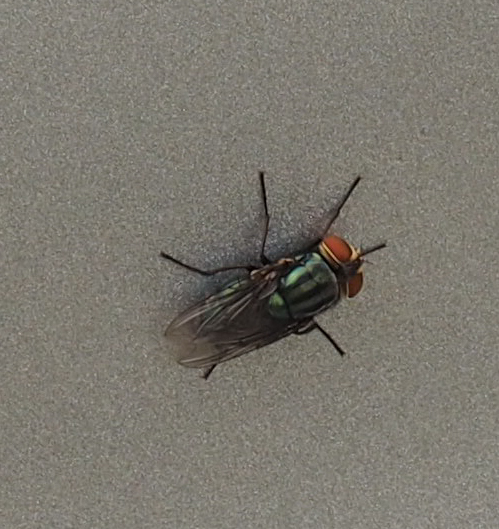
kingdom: Animalia
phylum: Arthropoda
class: Insecta
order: Diptera
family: Calliphoridae
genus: Cochliomyia
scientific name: Cochliomyia macellaria
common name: Secondary screwworm
